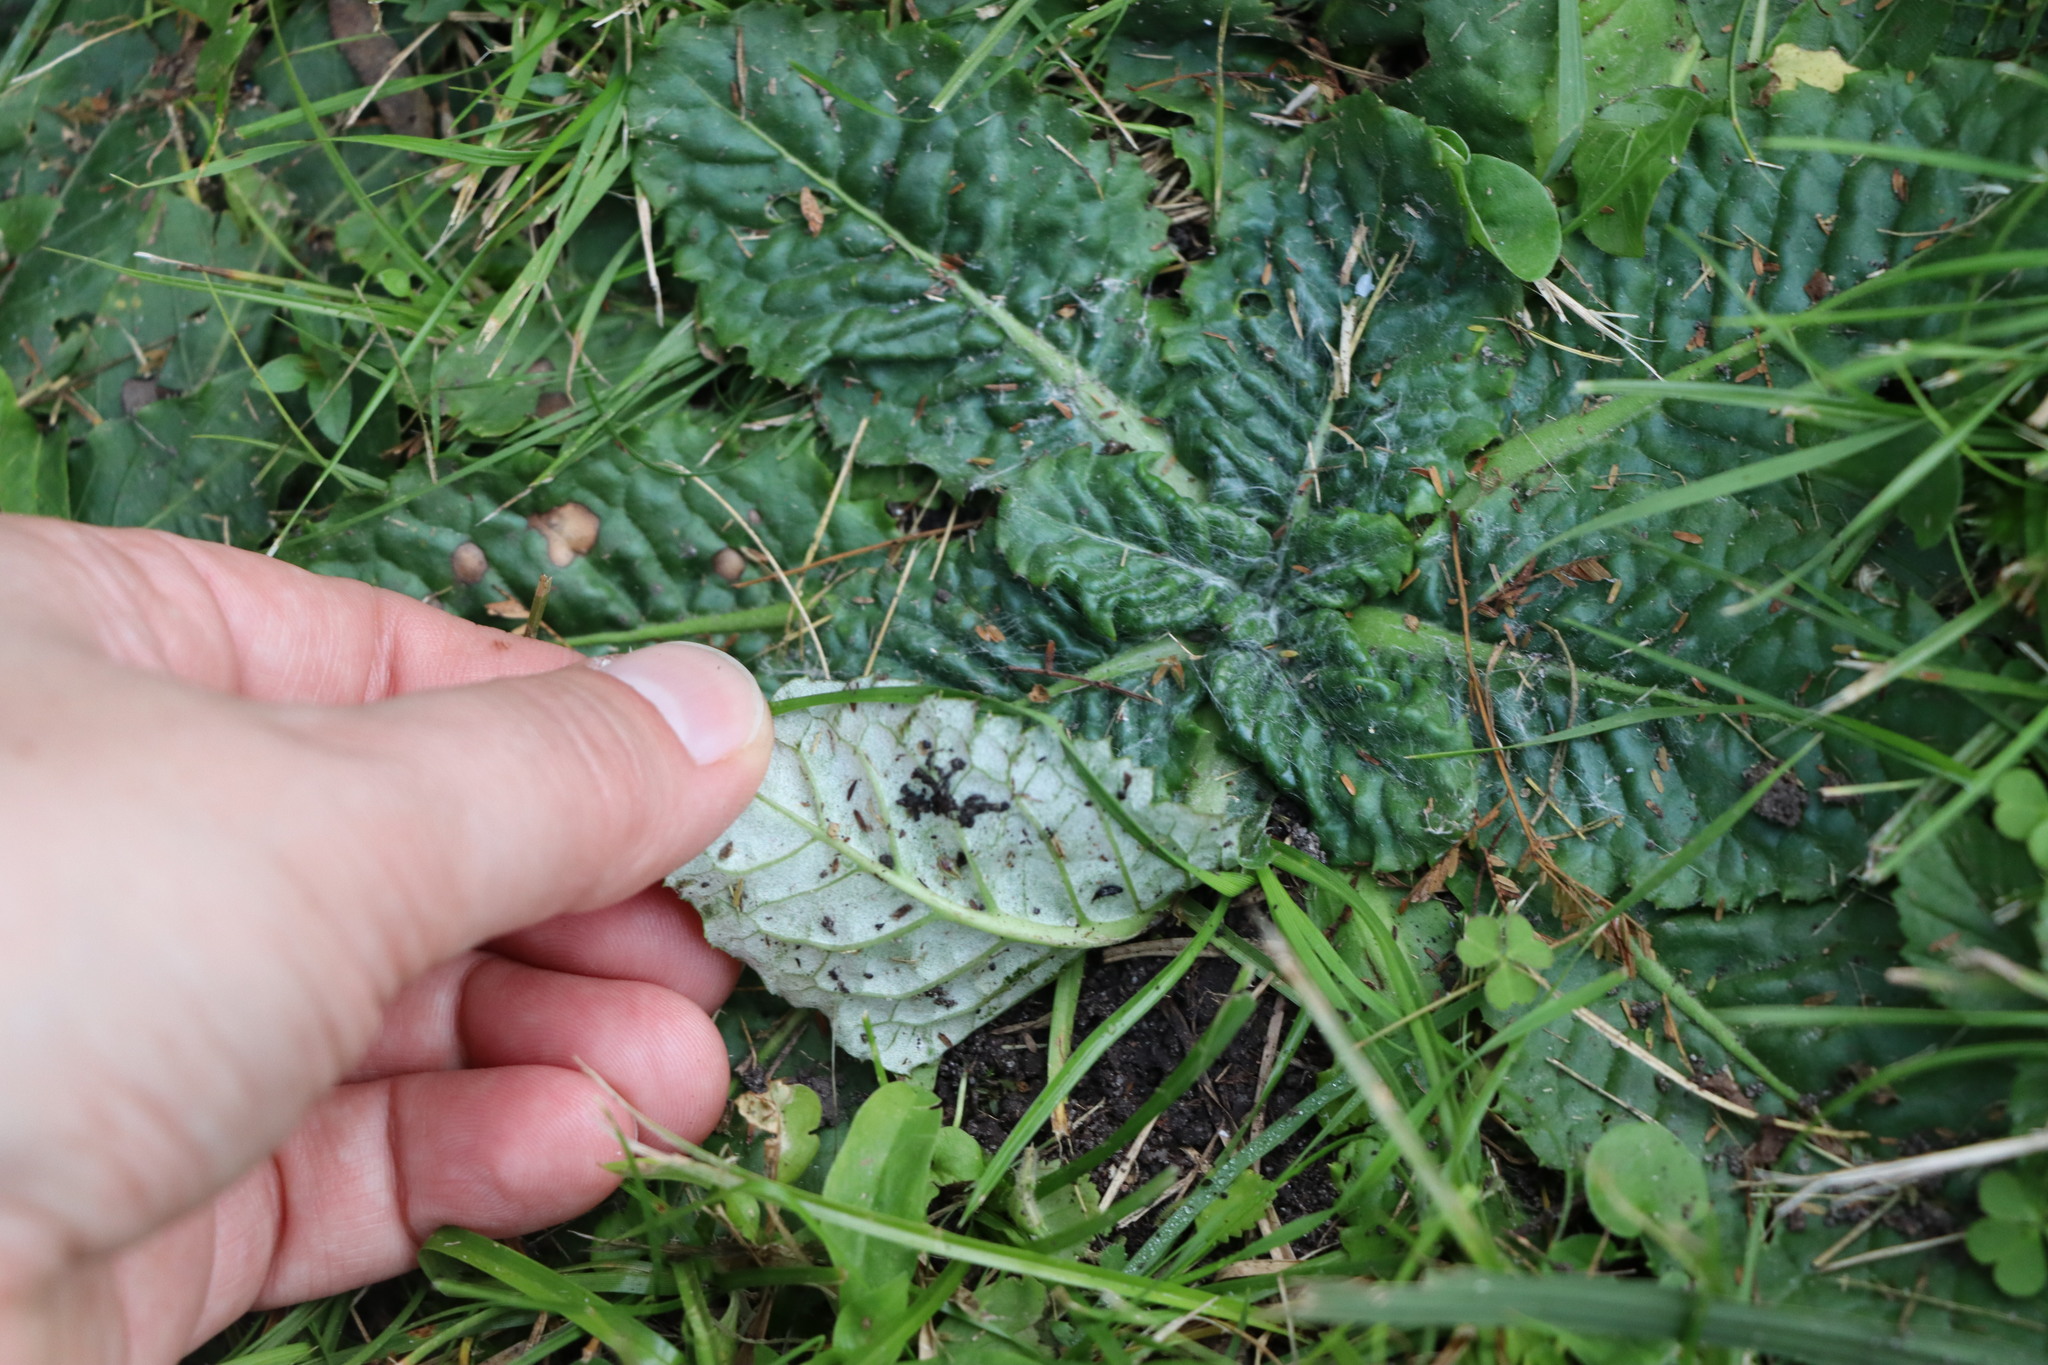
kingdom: Plantae
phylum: Tracheophyta
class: Magnoliopsida
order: Asterales
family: Asteraceae
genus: Chaptalia
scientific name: Chaptalia arechavaletae
